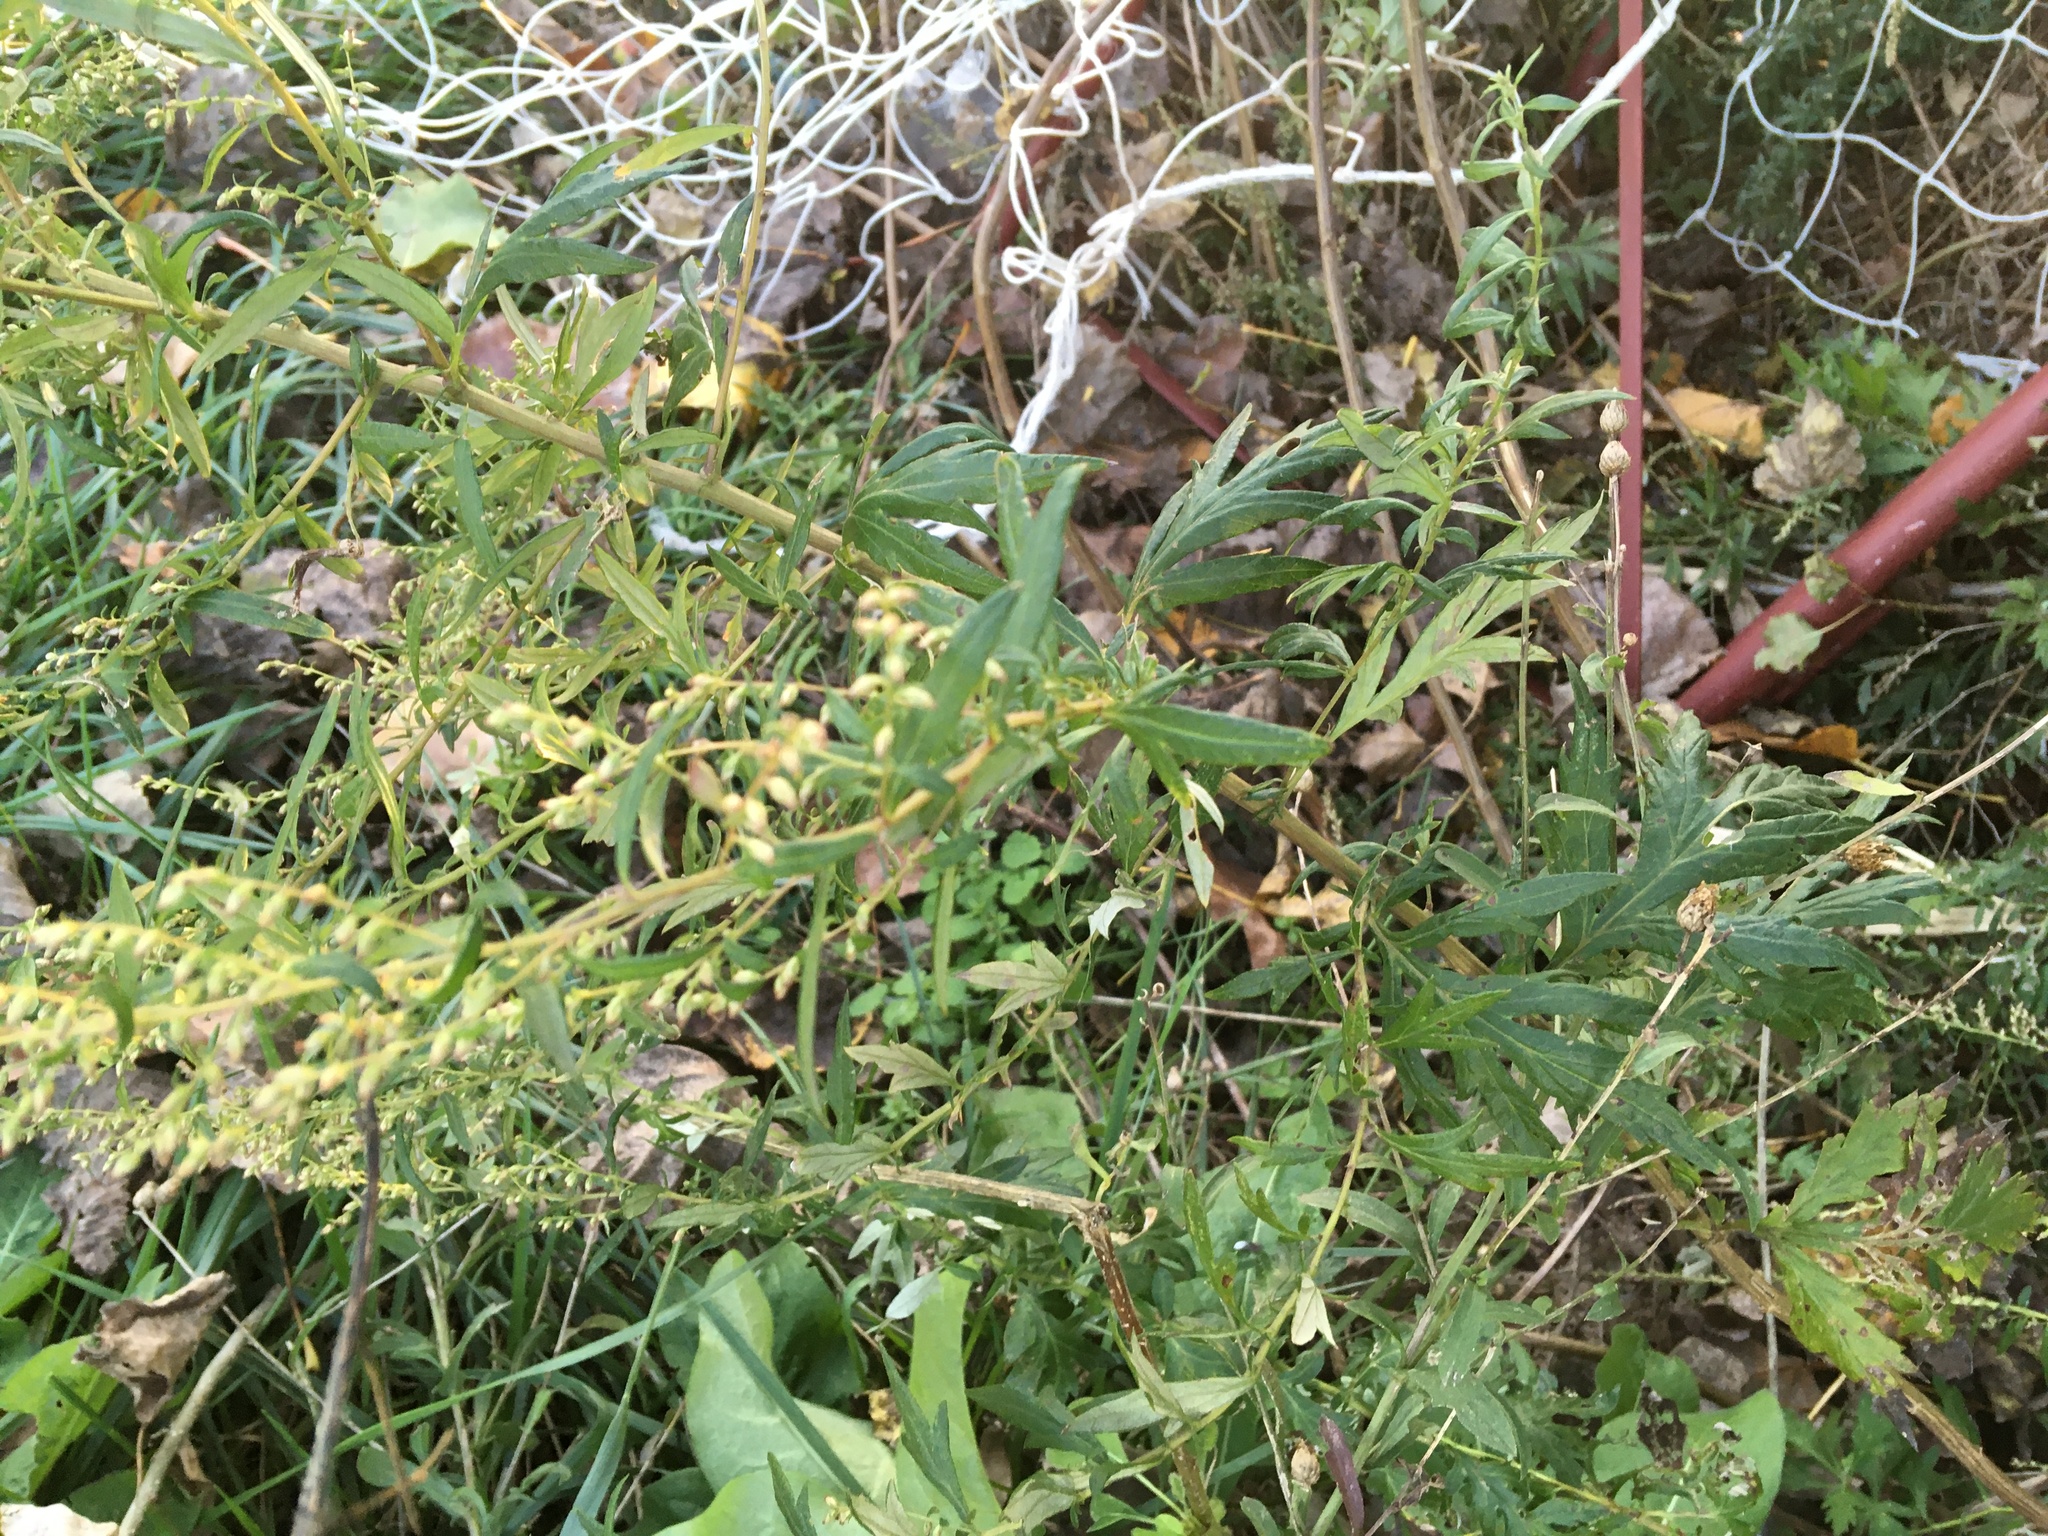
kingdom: Plantae
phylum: Tracheophyta
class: Magnoliopsida
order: Asterales
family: Asteraceae
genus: Artemisia
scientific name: Artemisia vulgaris
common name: Mugwort
